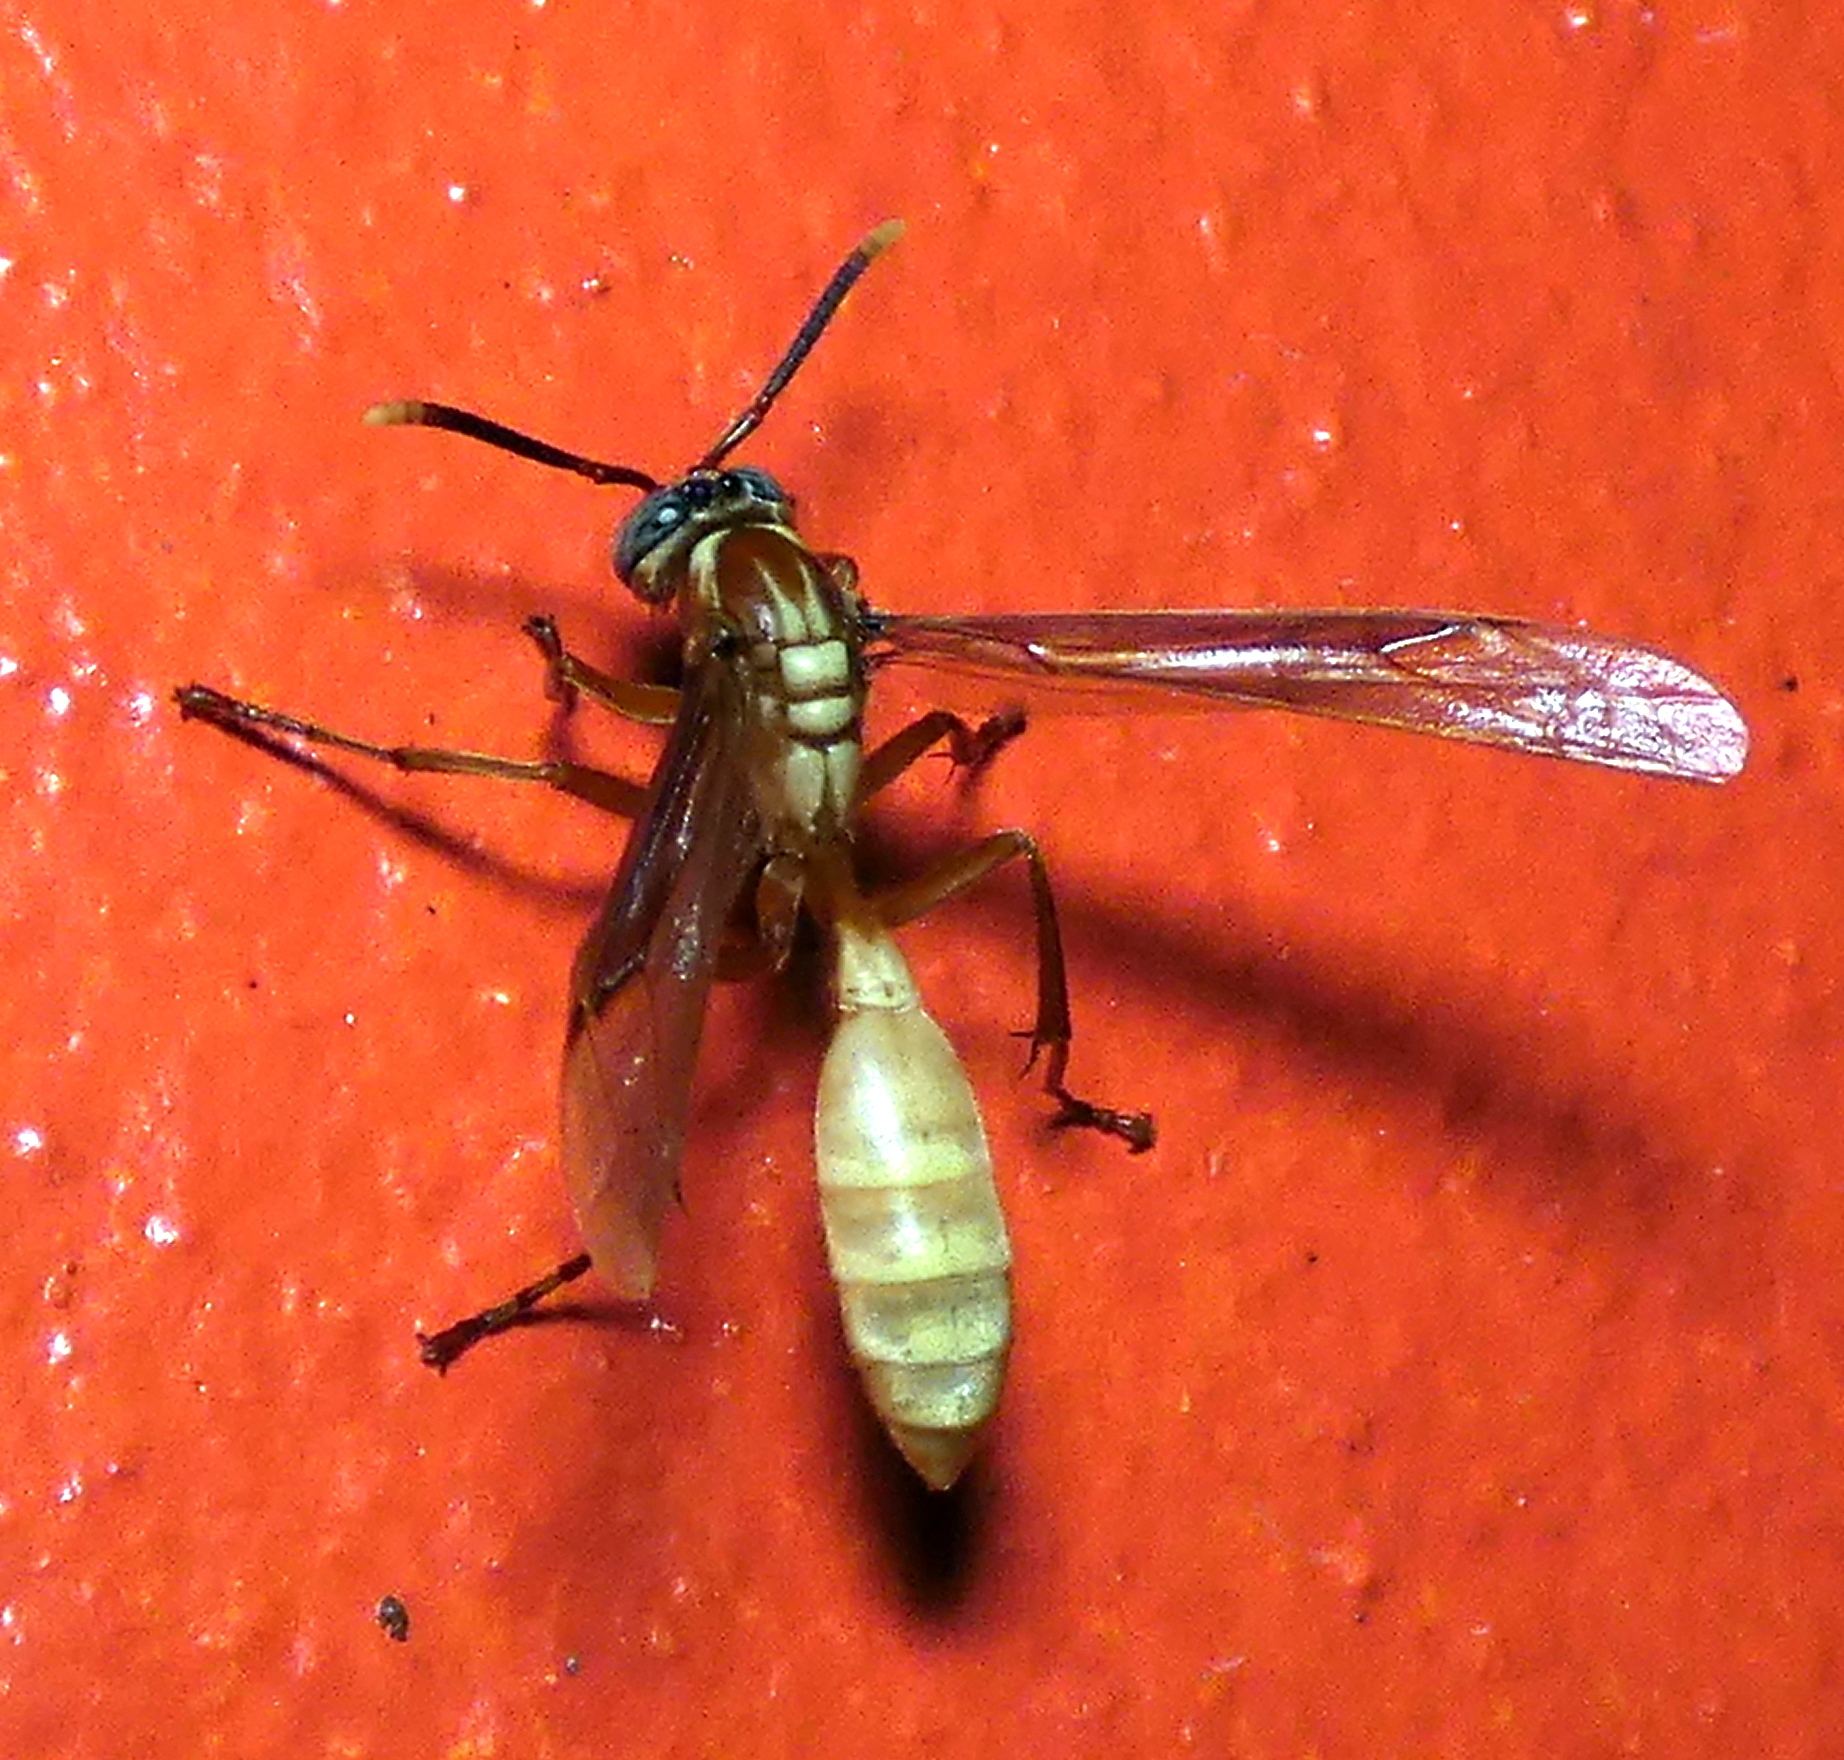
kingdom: Animalia
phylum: Arthropoda
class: Insecta
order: Hymenoptera
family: Vespidae
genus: Apoica
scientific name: Apoica flavissima
